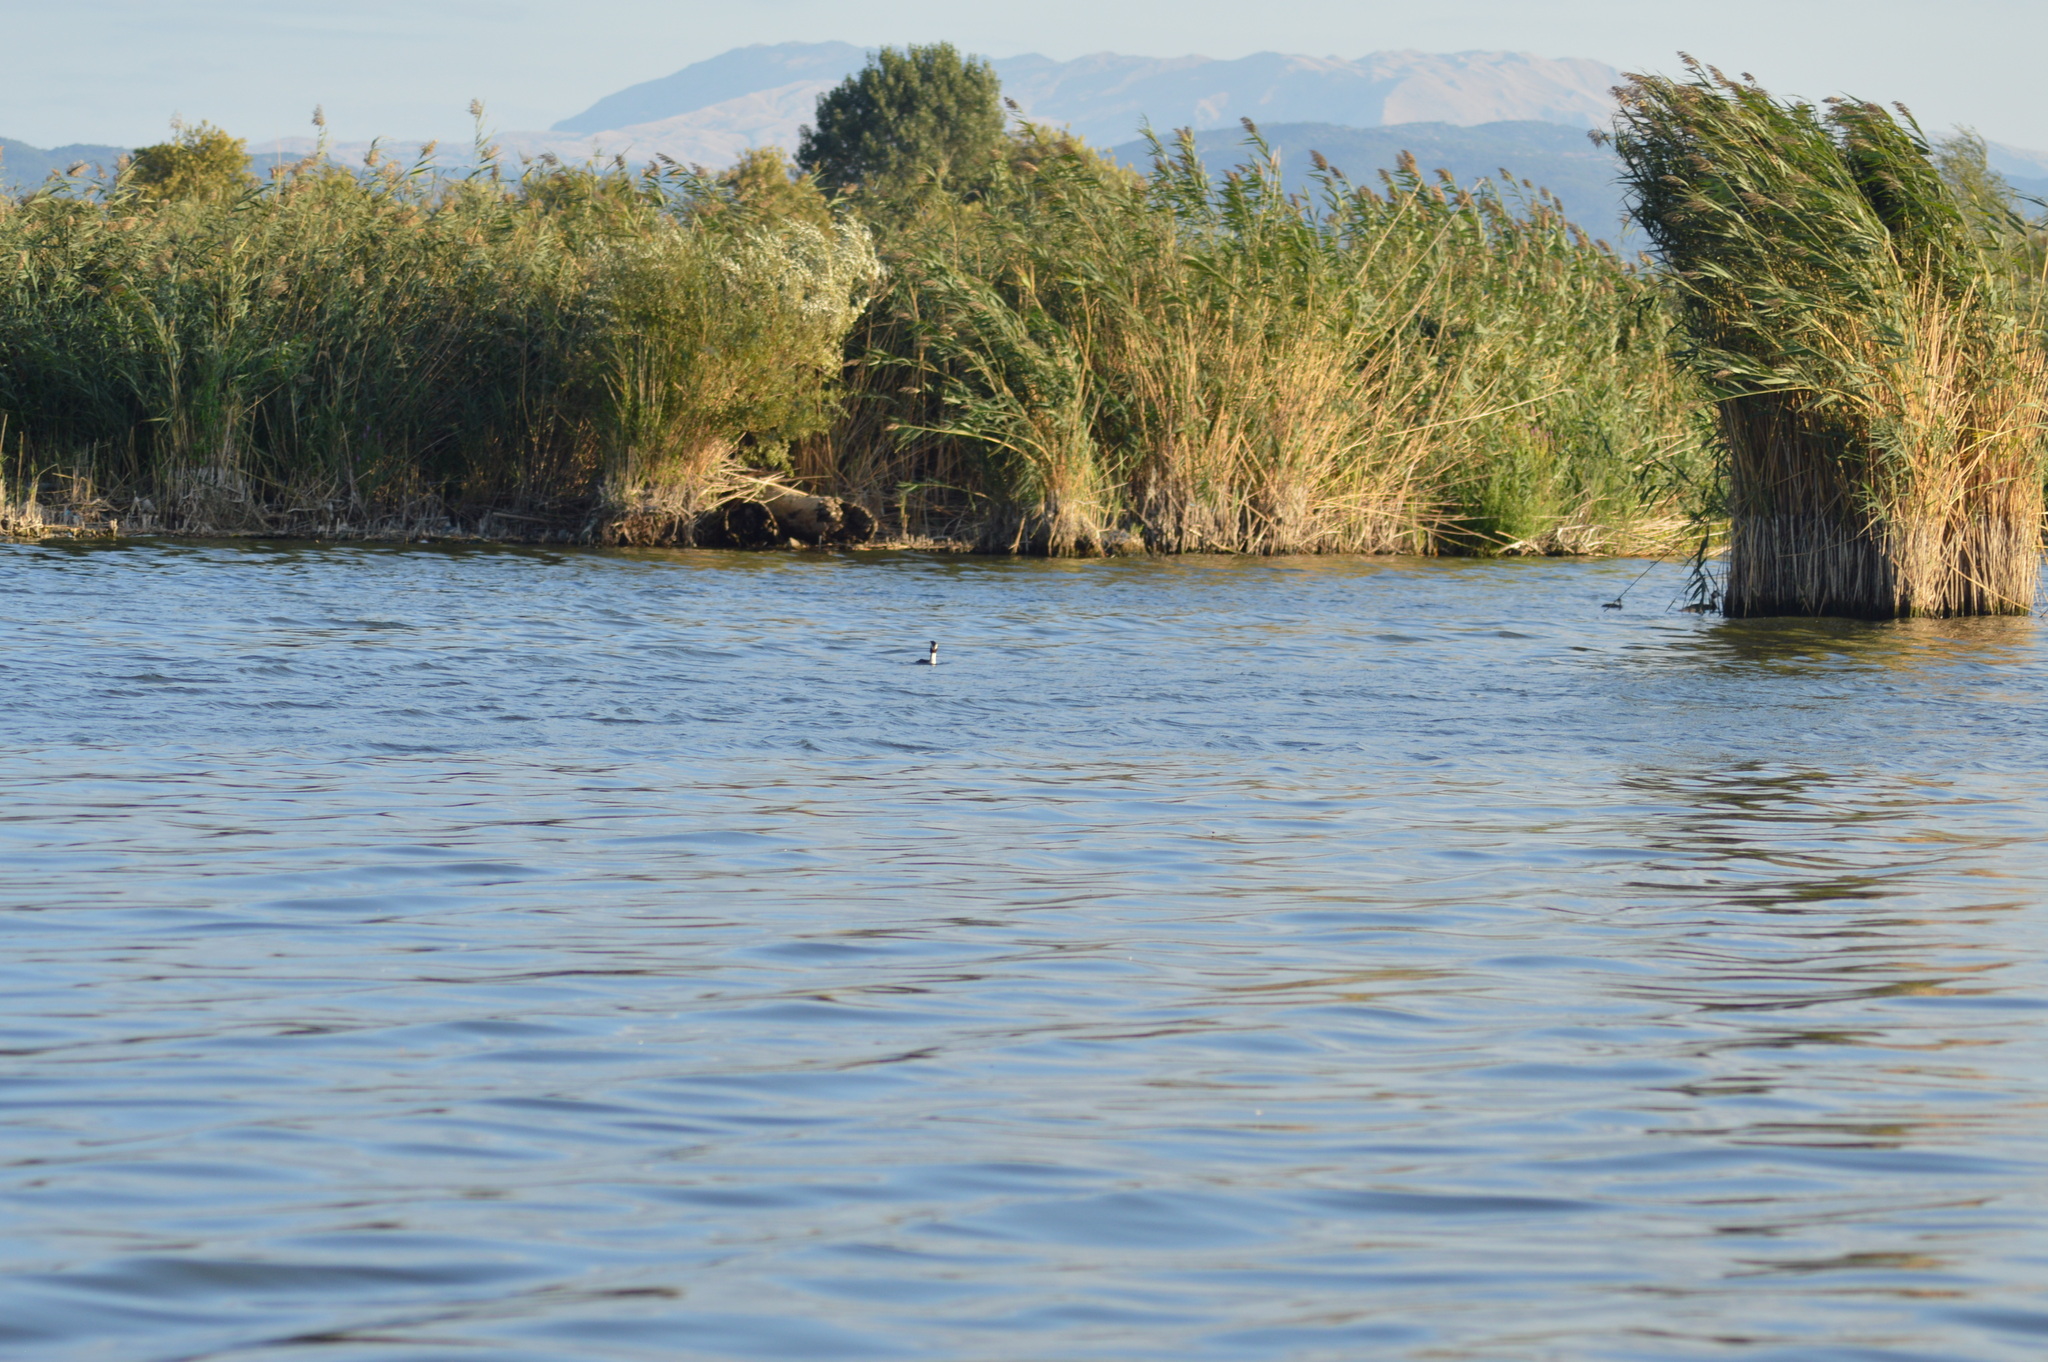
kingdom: Animalia
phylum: Chordata
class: Aves
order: Podicipediformes
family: Podicipedidae
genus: Podiceps
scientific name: Podiceps cristatus
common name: Great crested grebe
